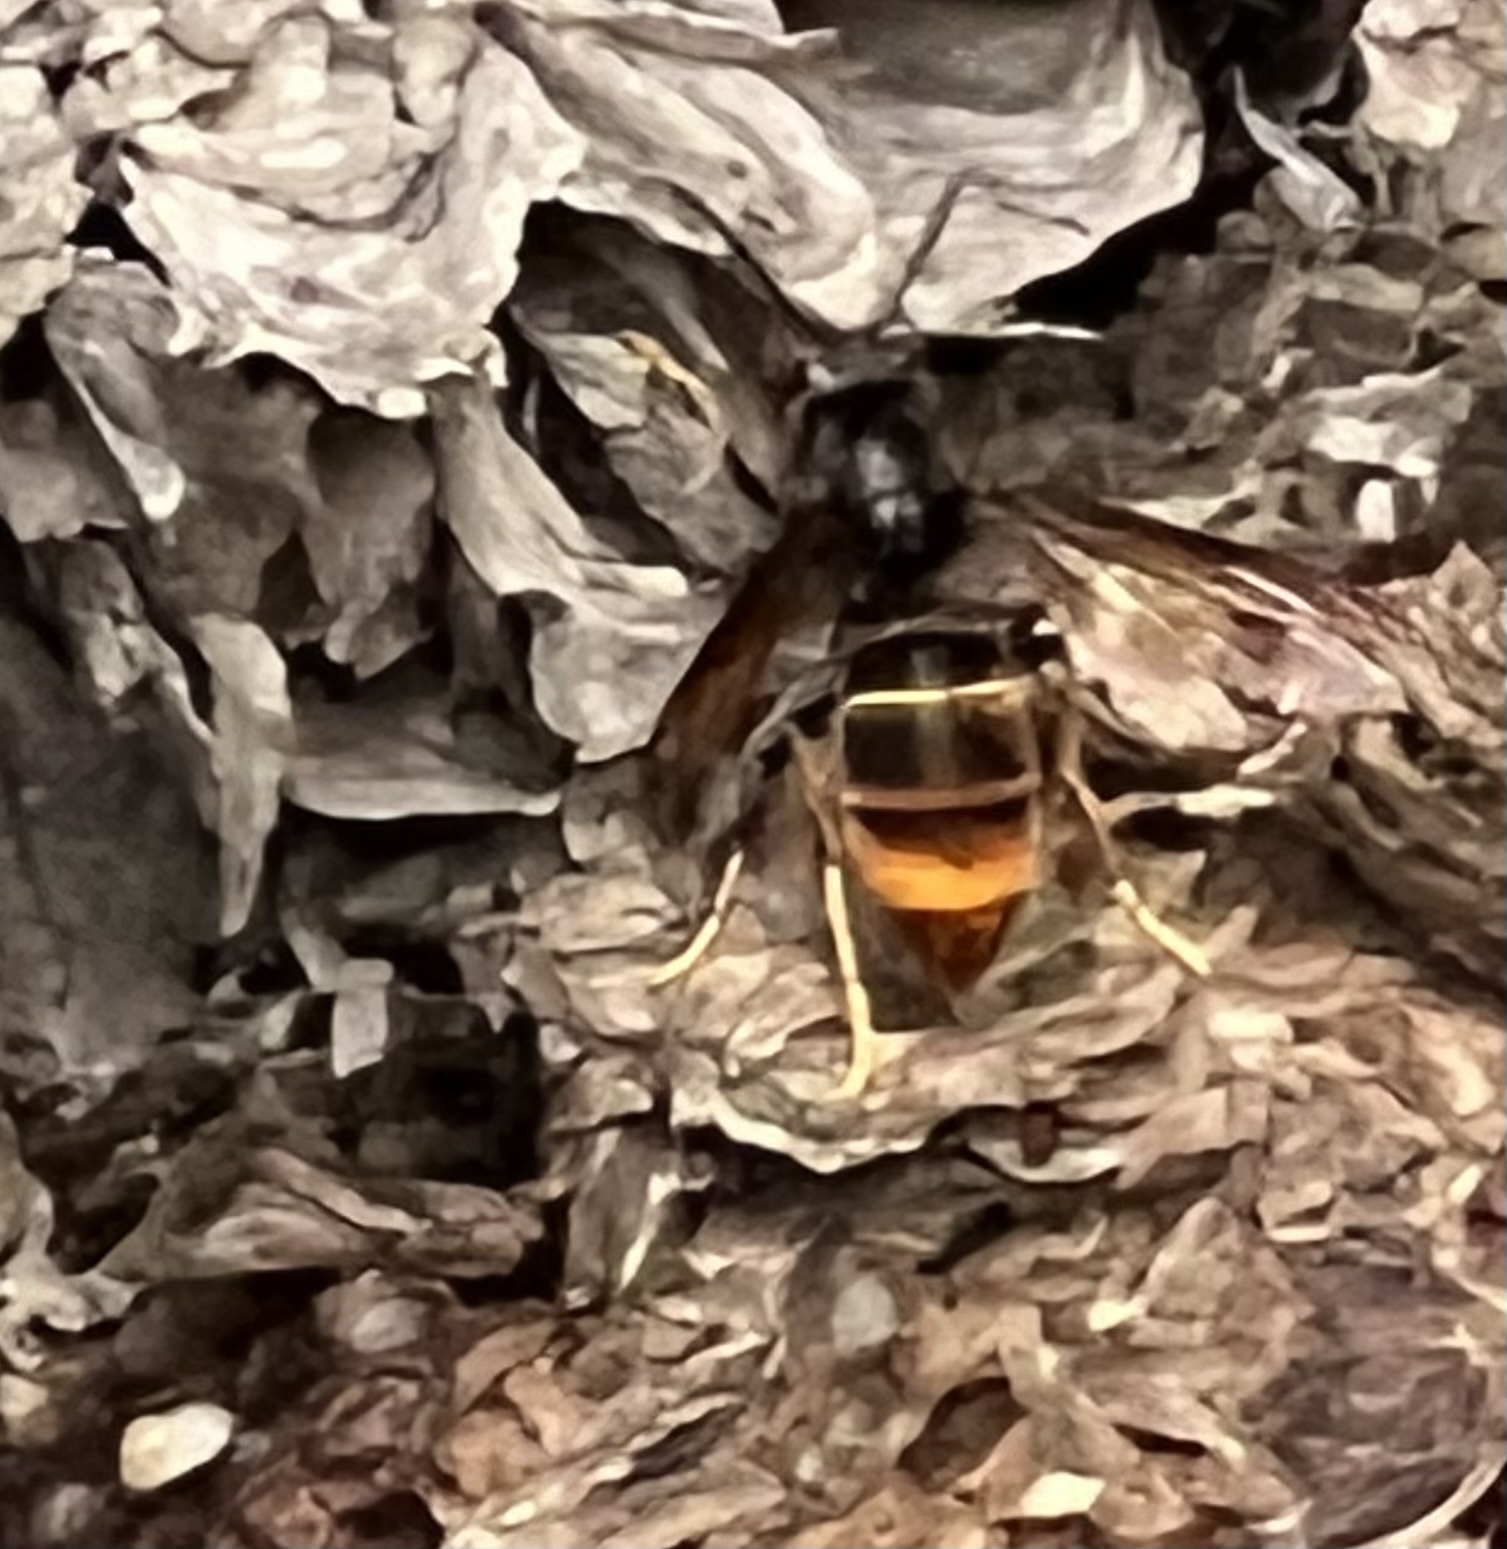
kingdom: Animalia
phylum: Arthropoda
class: Insecta
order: Hymenoptera
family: Vespidae
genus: Vespa
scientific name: Vespa velutina
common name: Asian hornet
